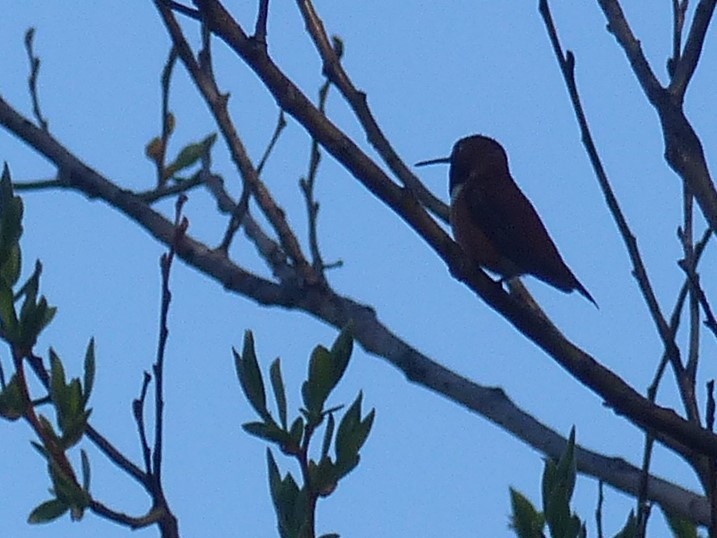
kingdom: Animalia
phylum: Chordata
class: Aves
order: Apodiformes
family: Trochilidae
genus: Selasphorus
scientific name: Selasphorus rufus
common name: Rufous hummingbird
